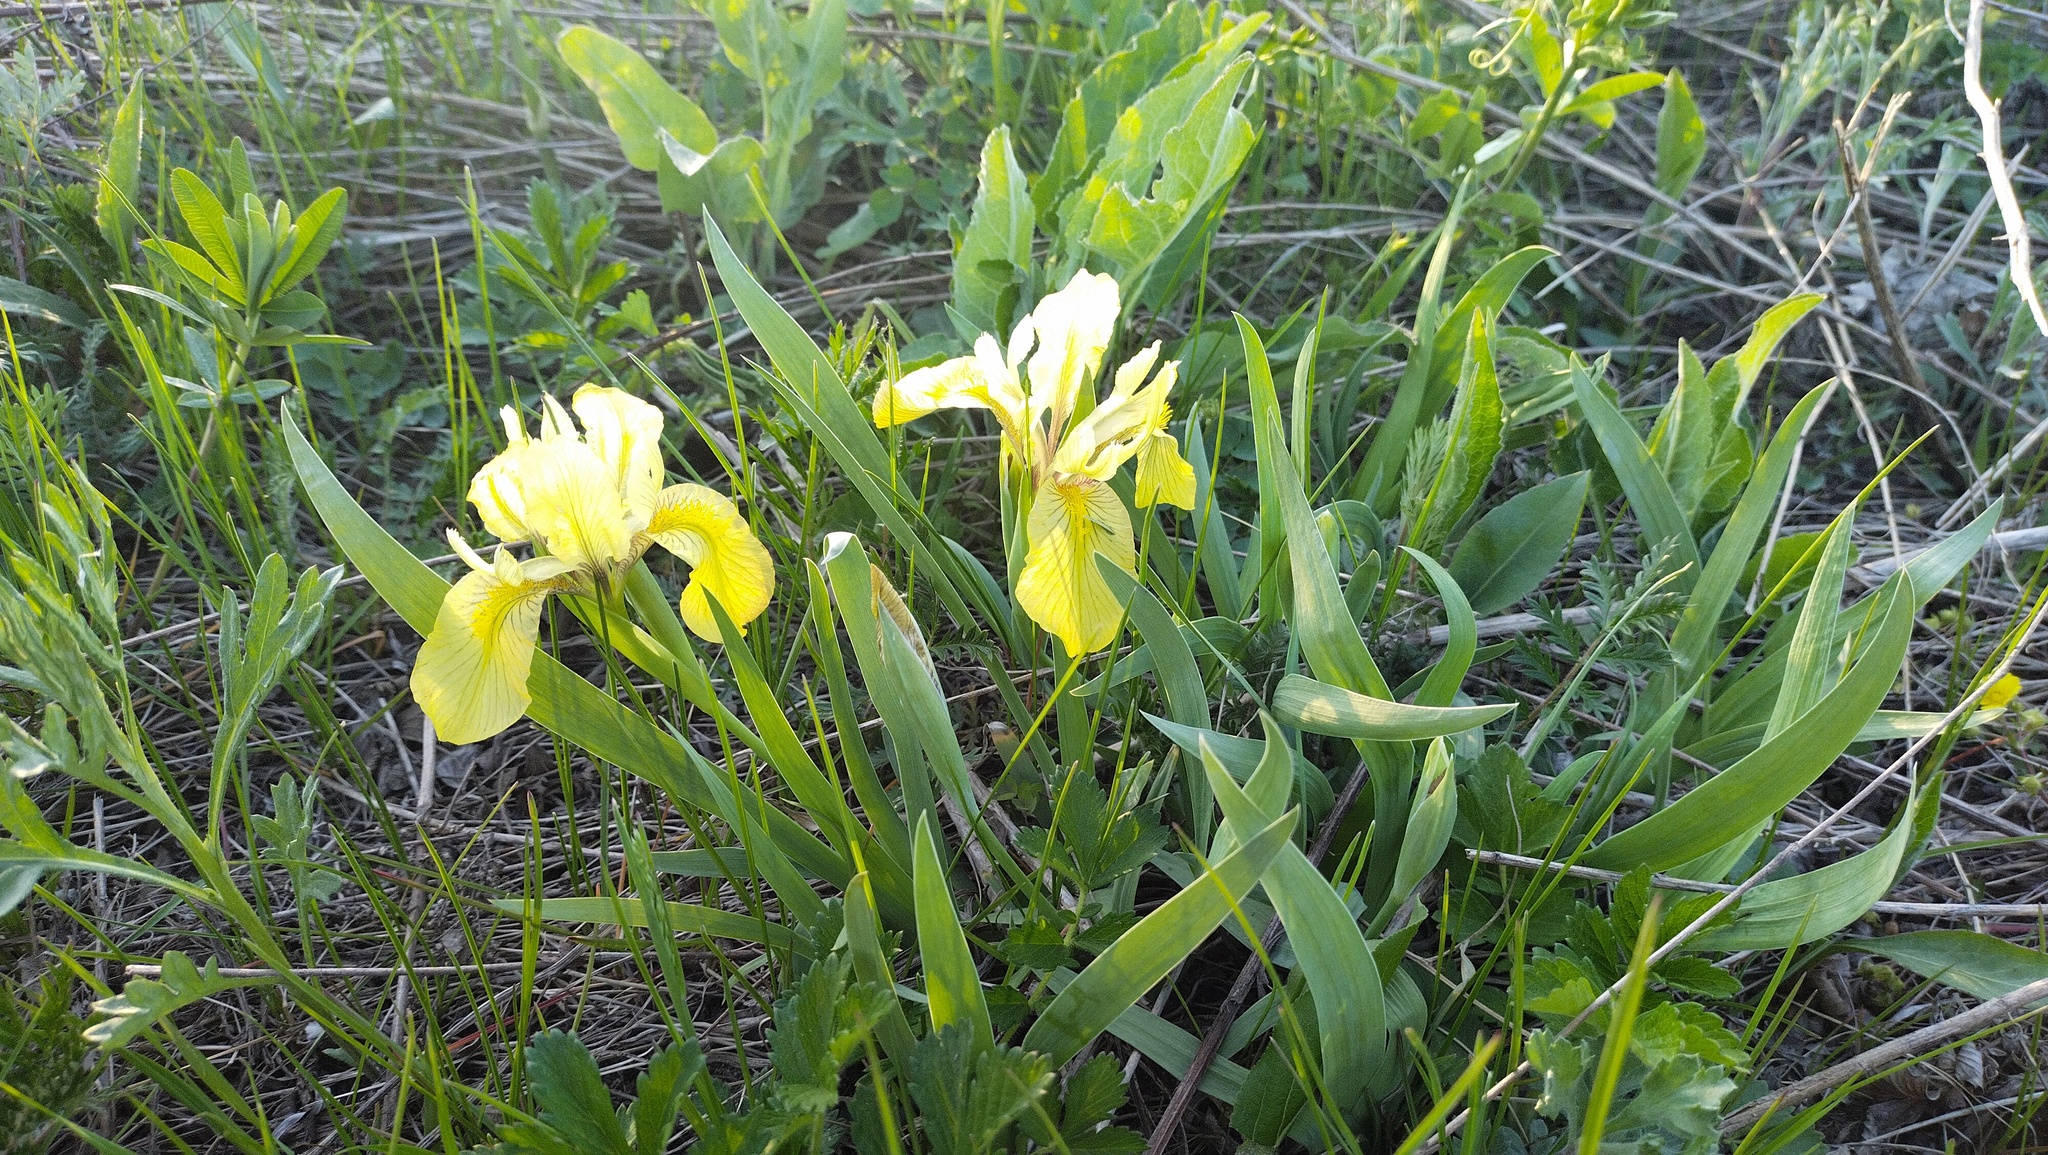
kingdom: Plantae
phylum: Tracheophyta
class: Liliopsida
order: Asparagales
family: Iridaceae
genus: Iris
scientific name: Iris humilis
